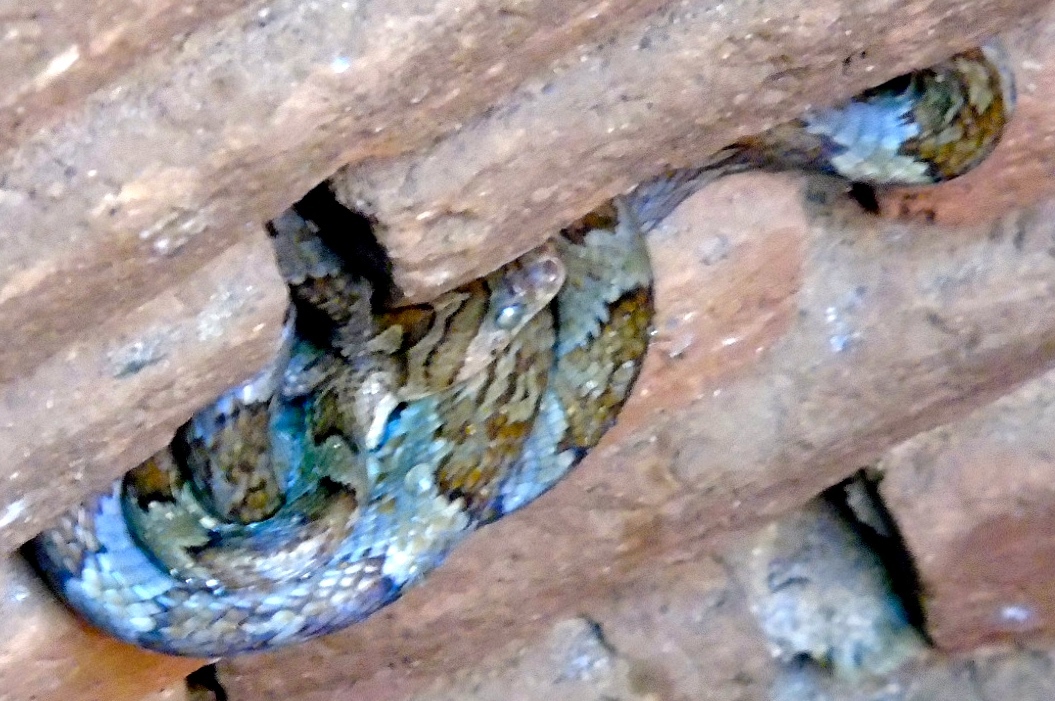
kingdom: Animalia
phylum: Chordata
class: Squamata
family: Colubridae
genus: Trimorphodon
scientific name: Trimorphodon paucimaculatus
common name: Sinaloan lyresnake
